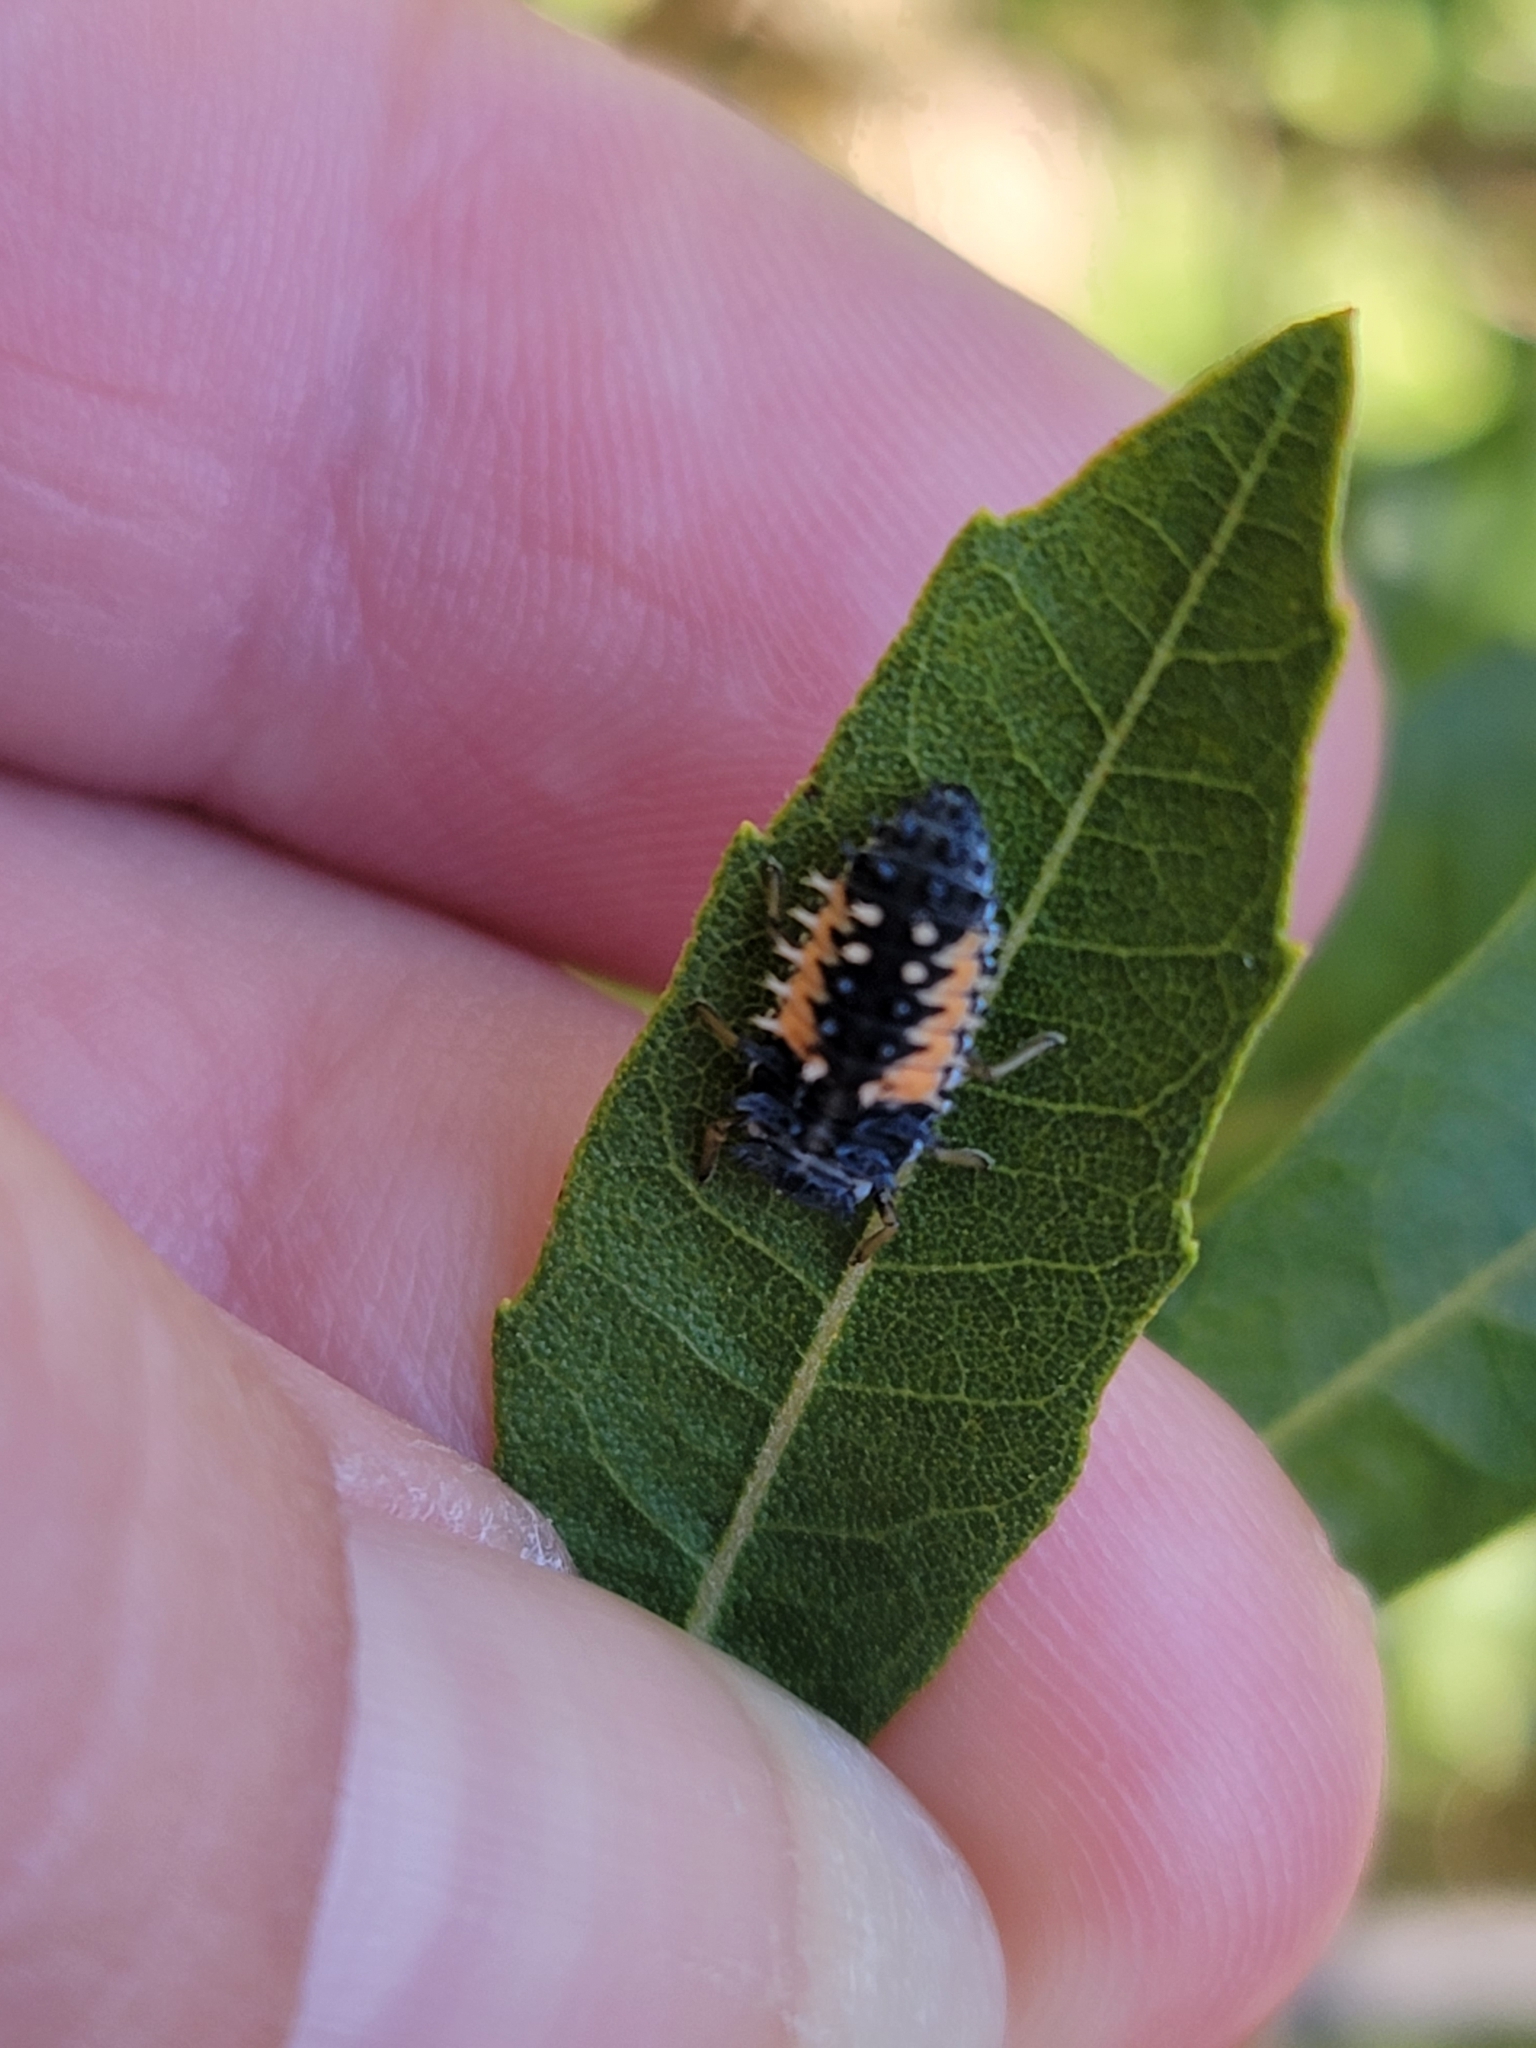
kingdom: Animalia
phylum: Arthropoda
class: Insecta
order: Coleoptera
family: Coccinellidae
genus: Harmonia
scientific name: Harmonia axyridis
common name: Harlequin ladybird
